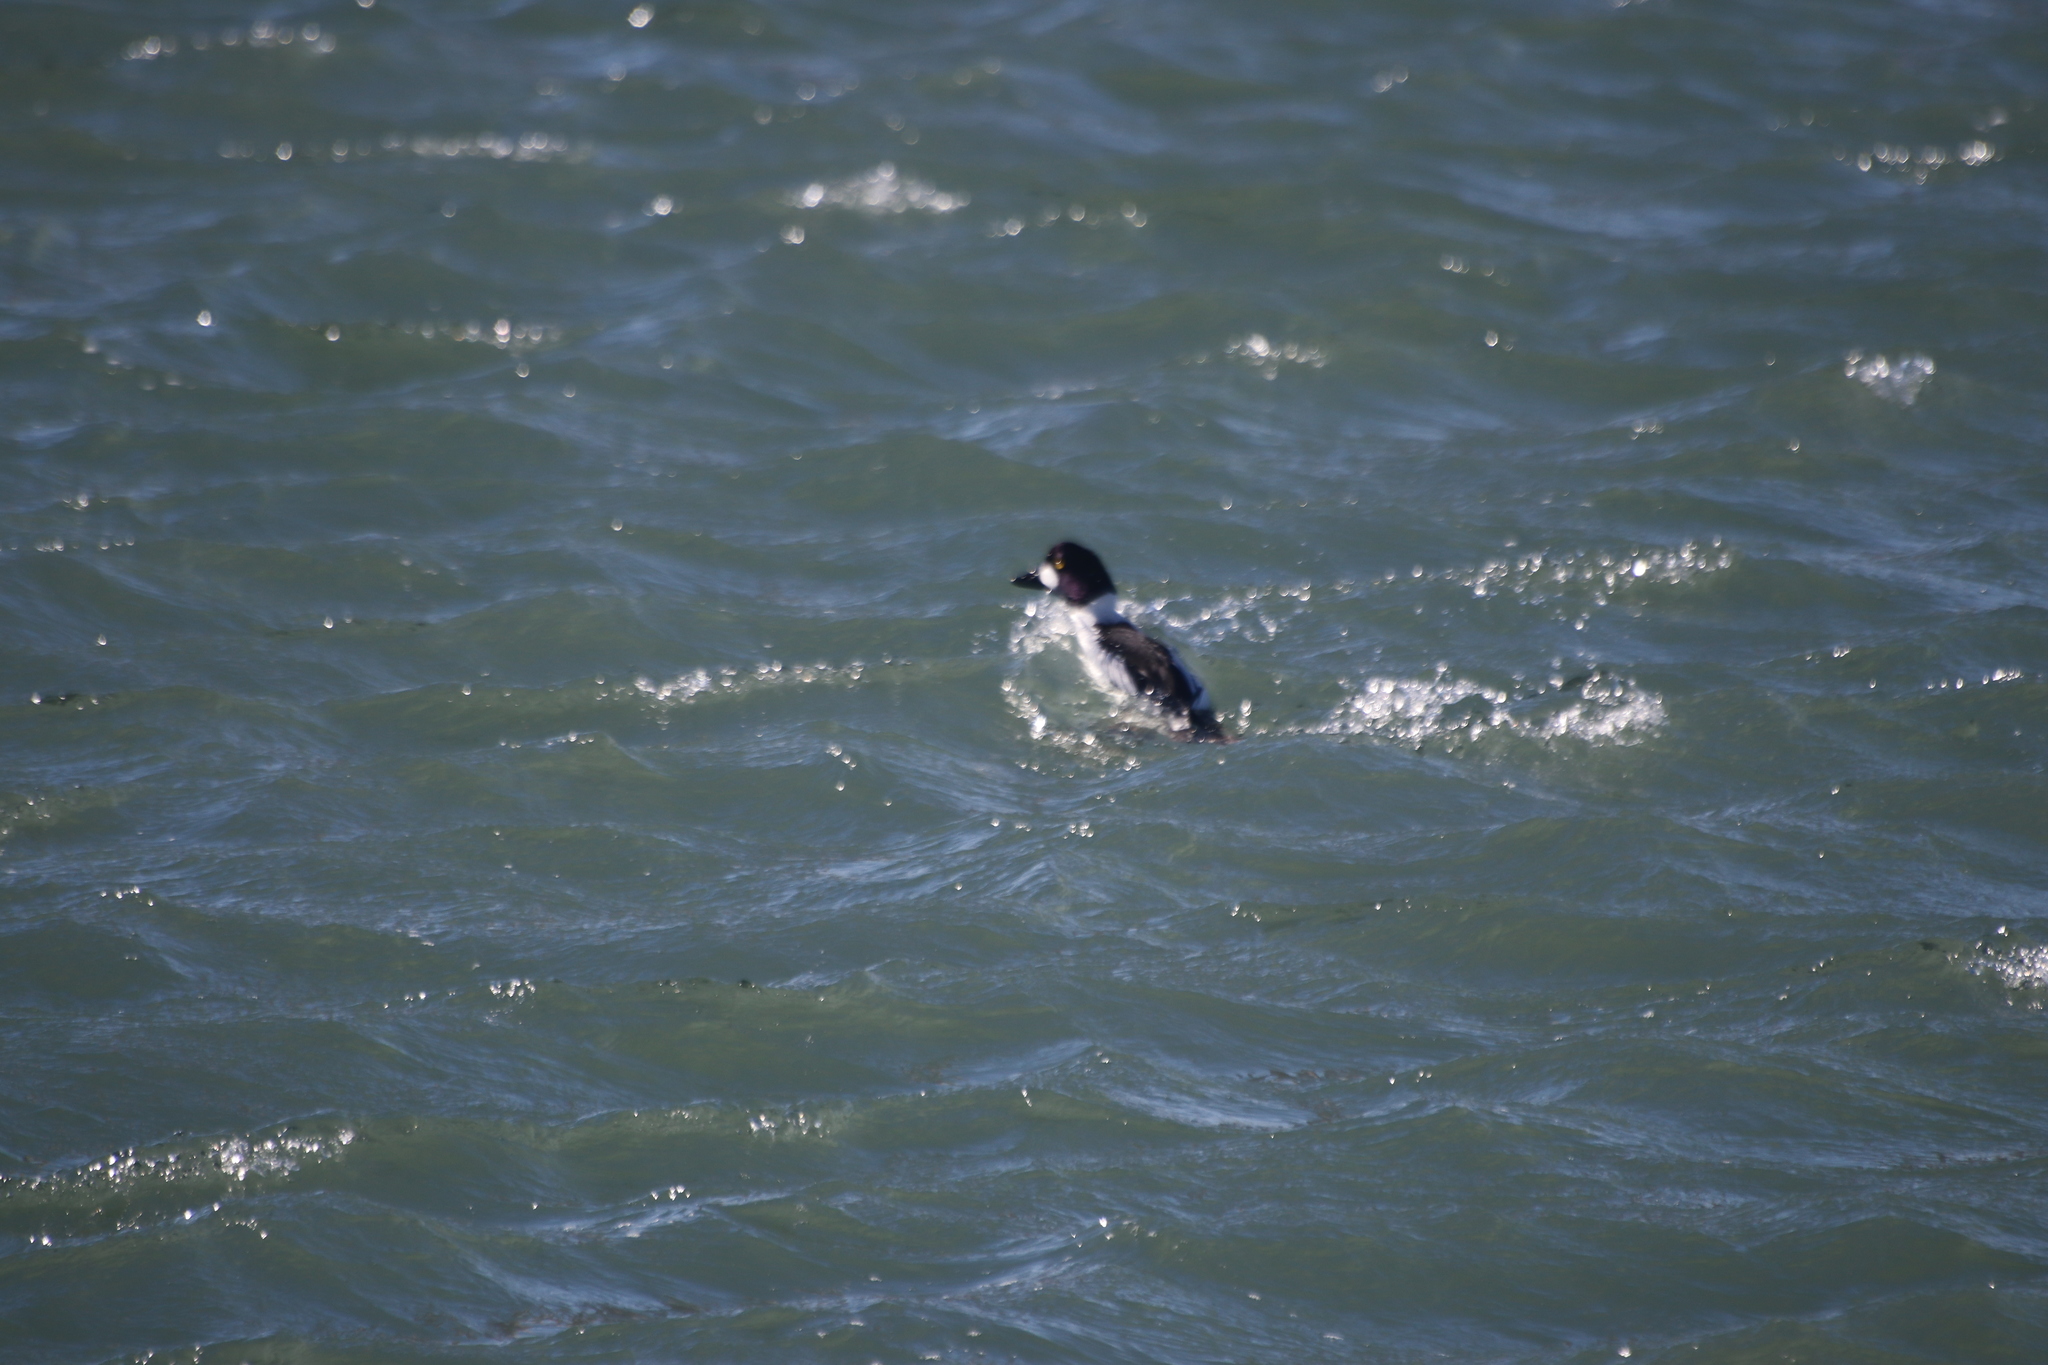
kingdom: Animalia
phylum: Chordata
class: Aves
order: Anseriformes
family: Anatidae
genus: Bucephala
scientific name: Bucephala clangula
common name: Common goldeneye
